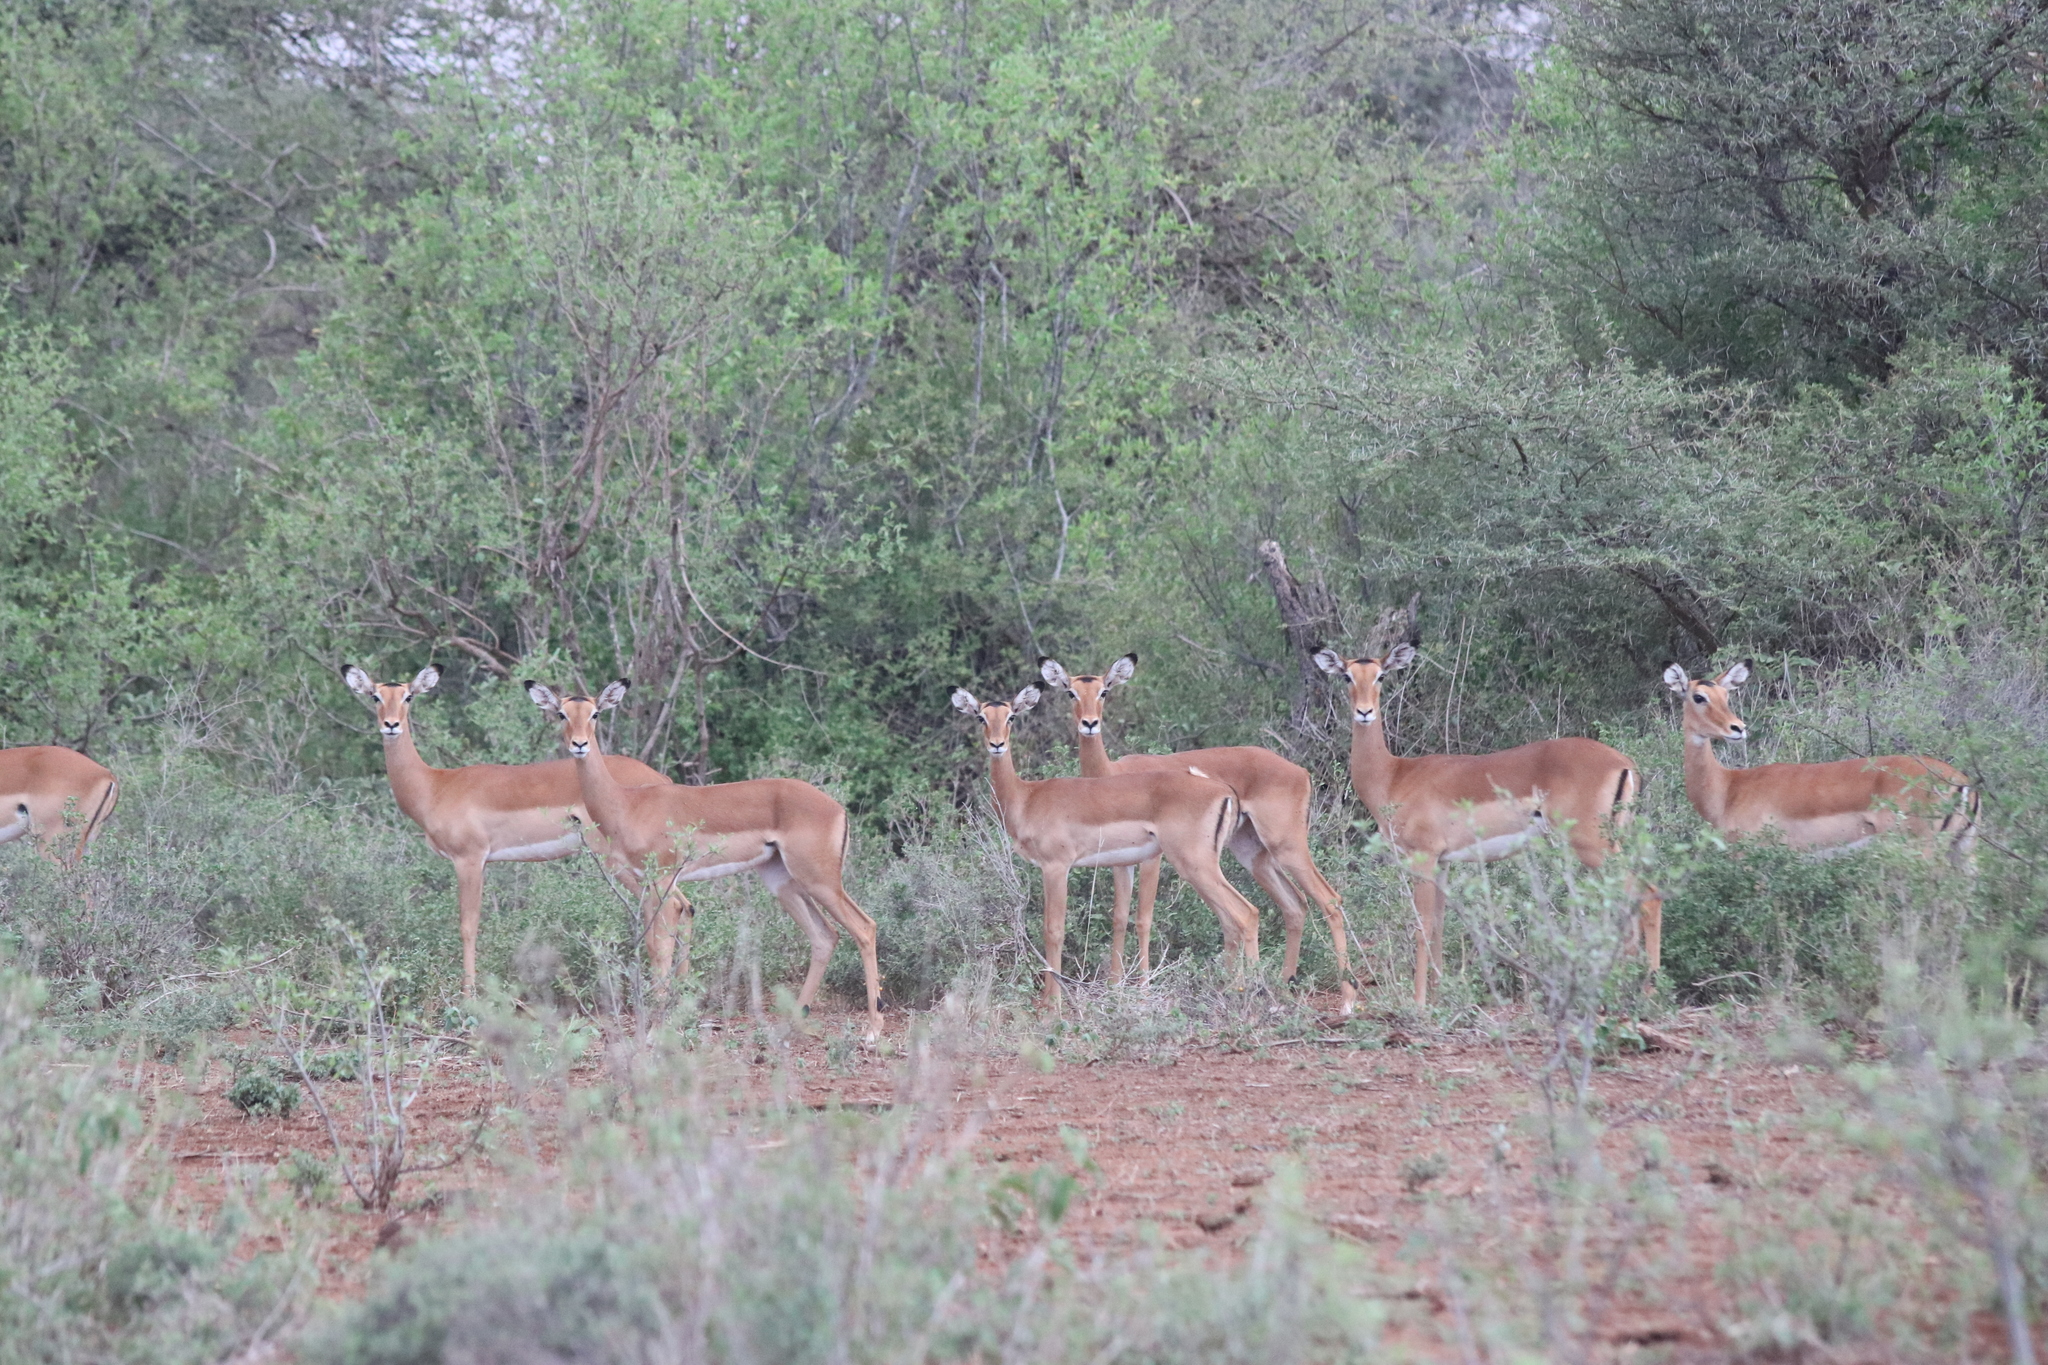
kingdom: Animalia
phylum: Chordata
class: Mammalia
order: Artiodactyla
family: Bovidae
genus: Aepyceros
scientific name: Aepyceros melampus
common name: Impala
